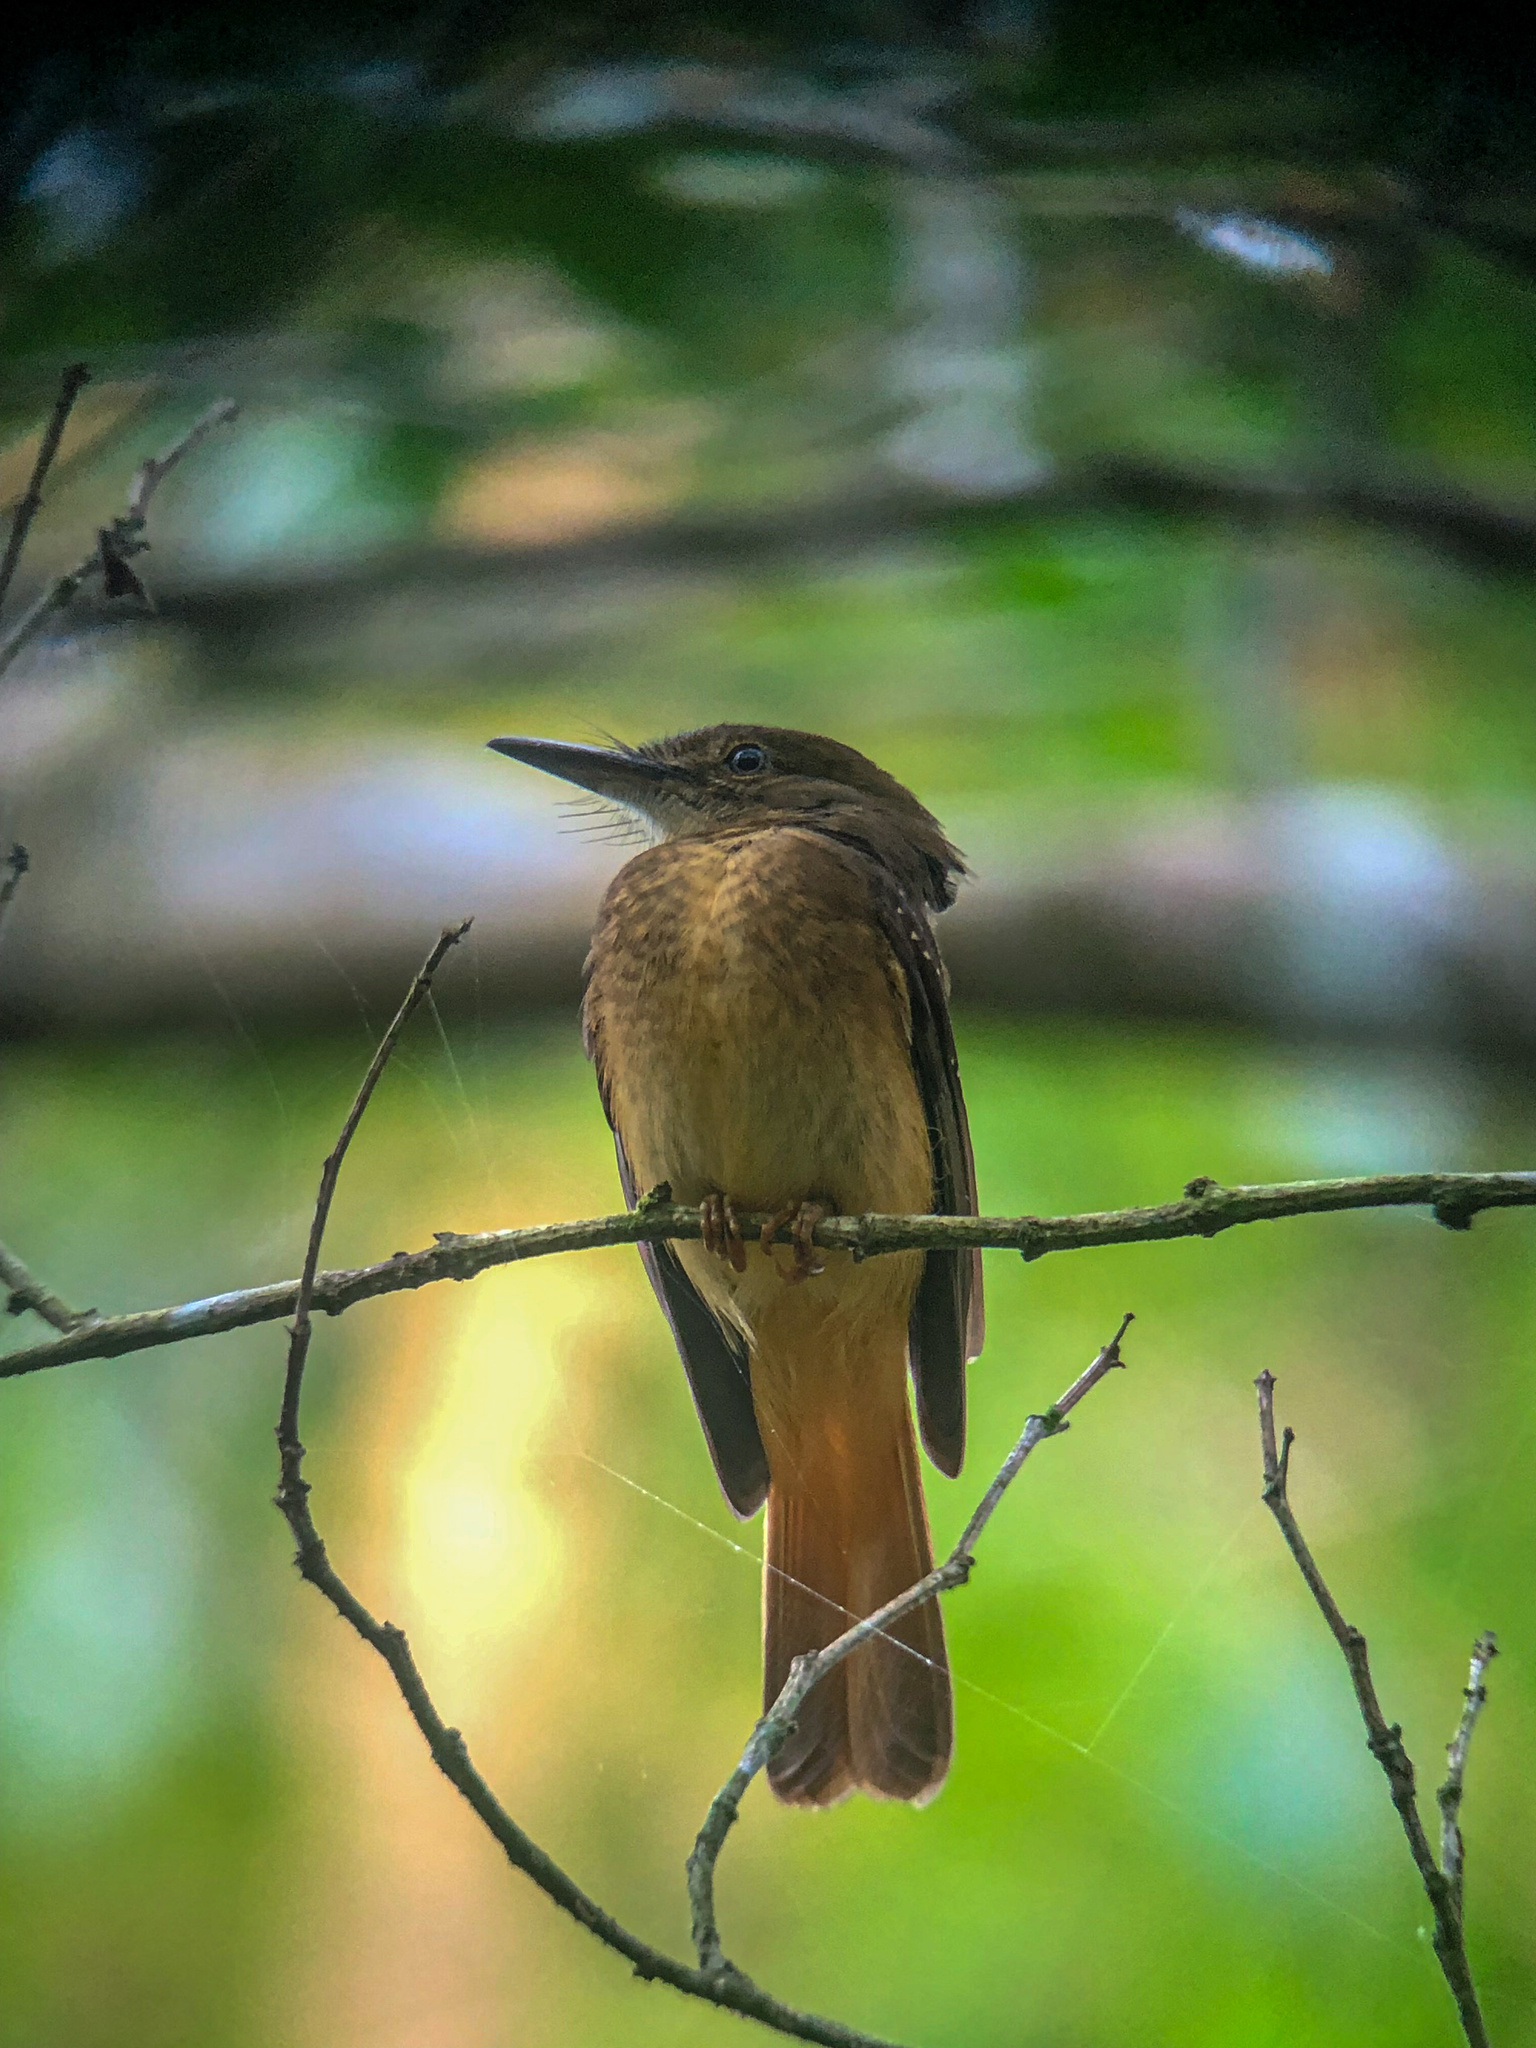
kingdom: Animalia
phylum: Chordata
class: Aves
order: Passeriformes
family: Tyrannidae
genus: Onychorhynchus
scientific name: Onychorhynchus coronatus
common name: Royal flycatcher
